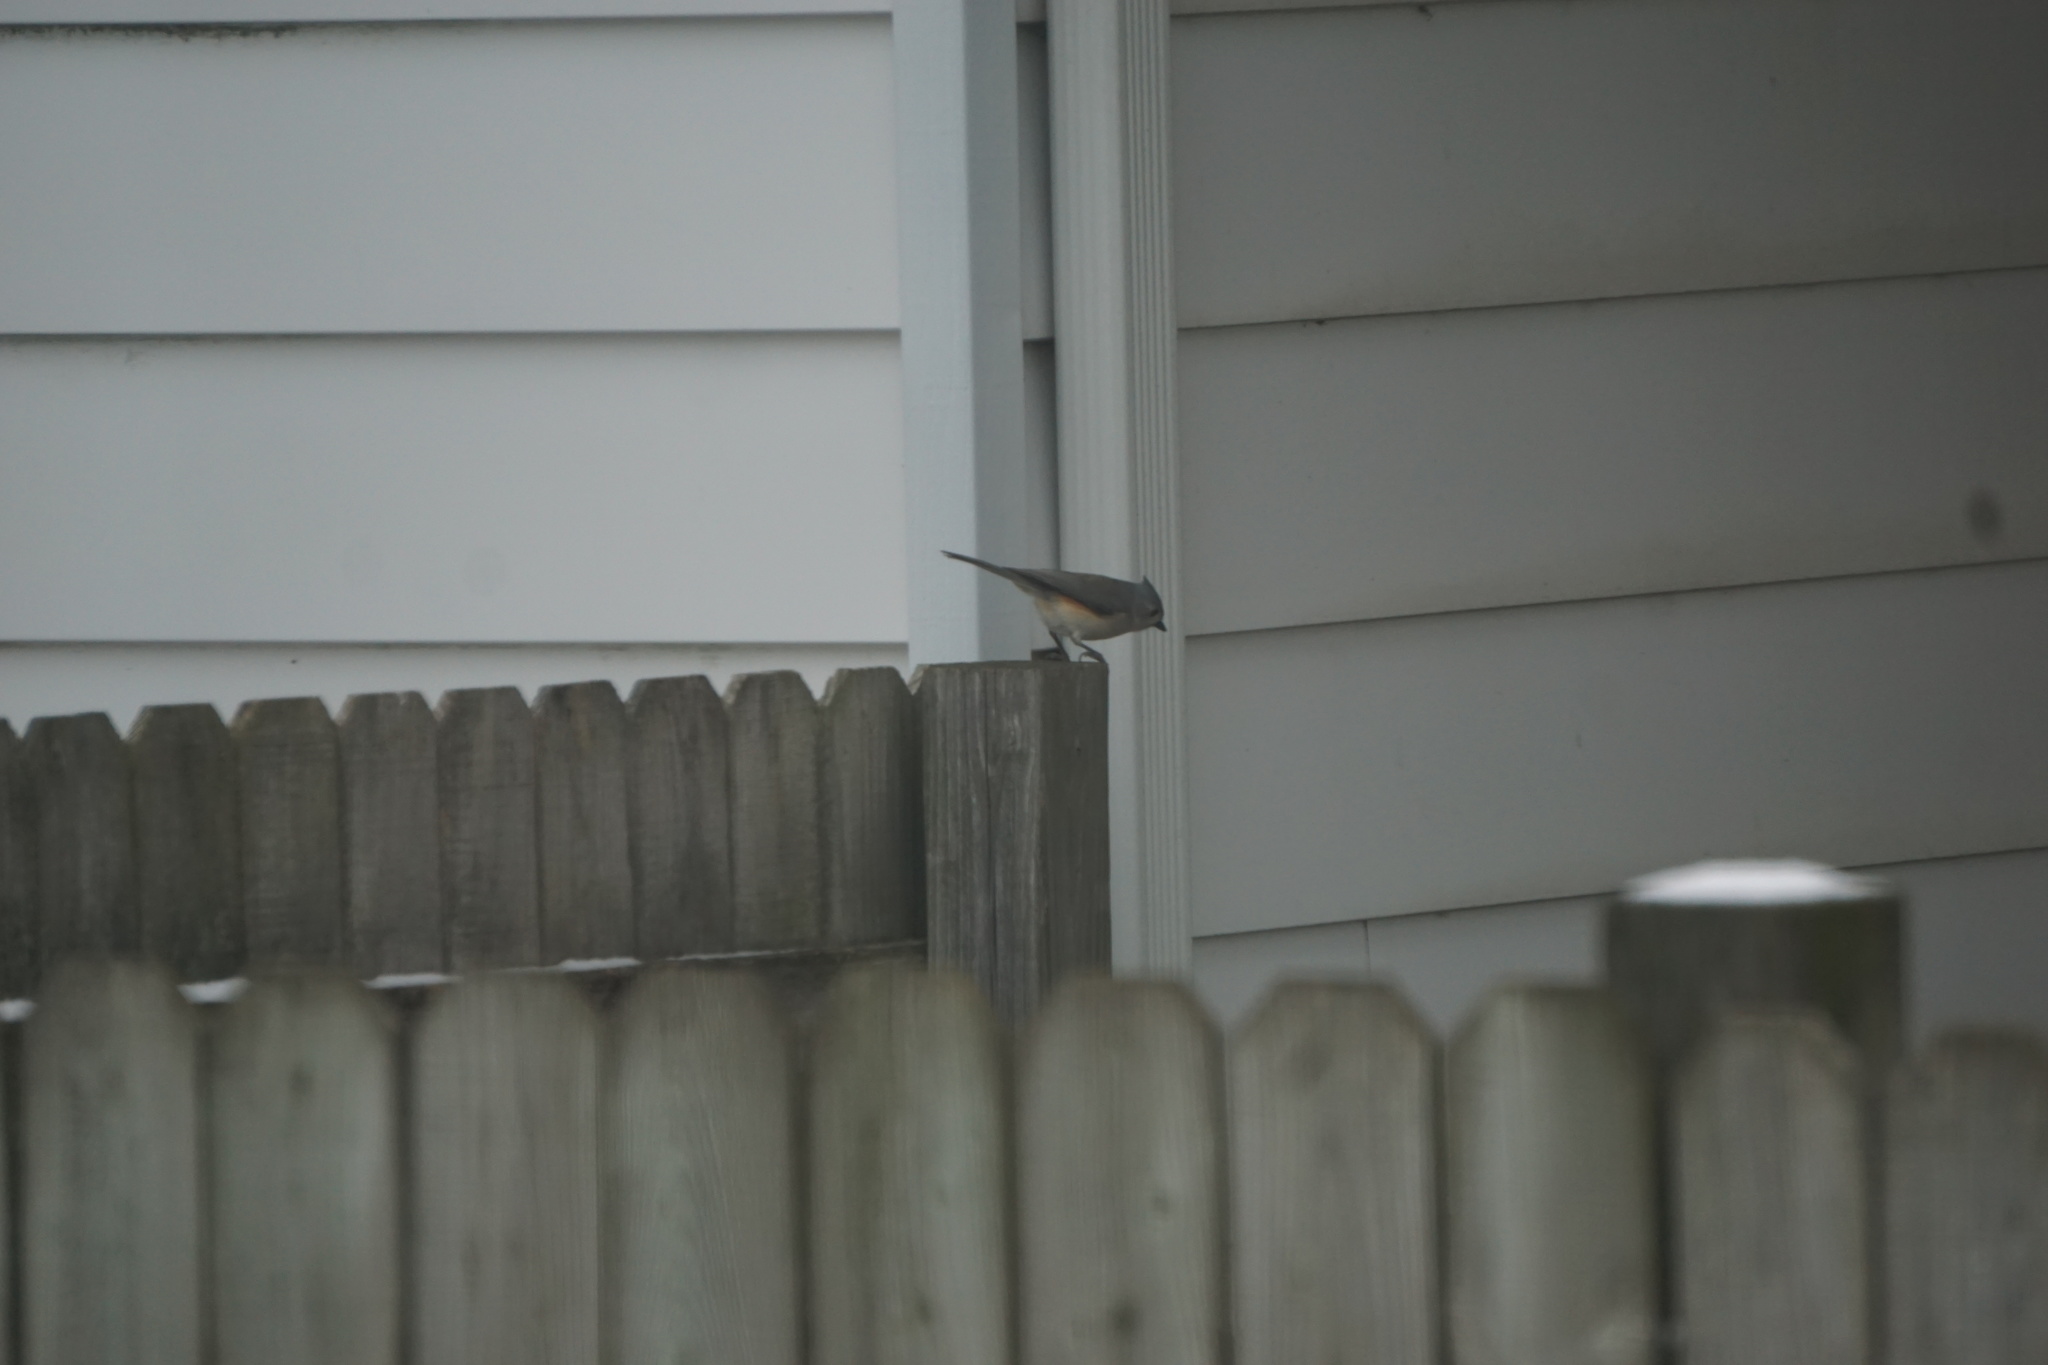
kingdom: Animalia
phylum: Chordata
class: Aves
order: Passeriformes
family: Paridae
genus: Baeolophus
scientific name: Baeolophus bicolor
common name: Tufted titmouse
